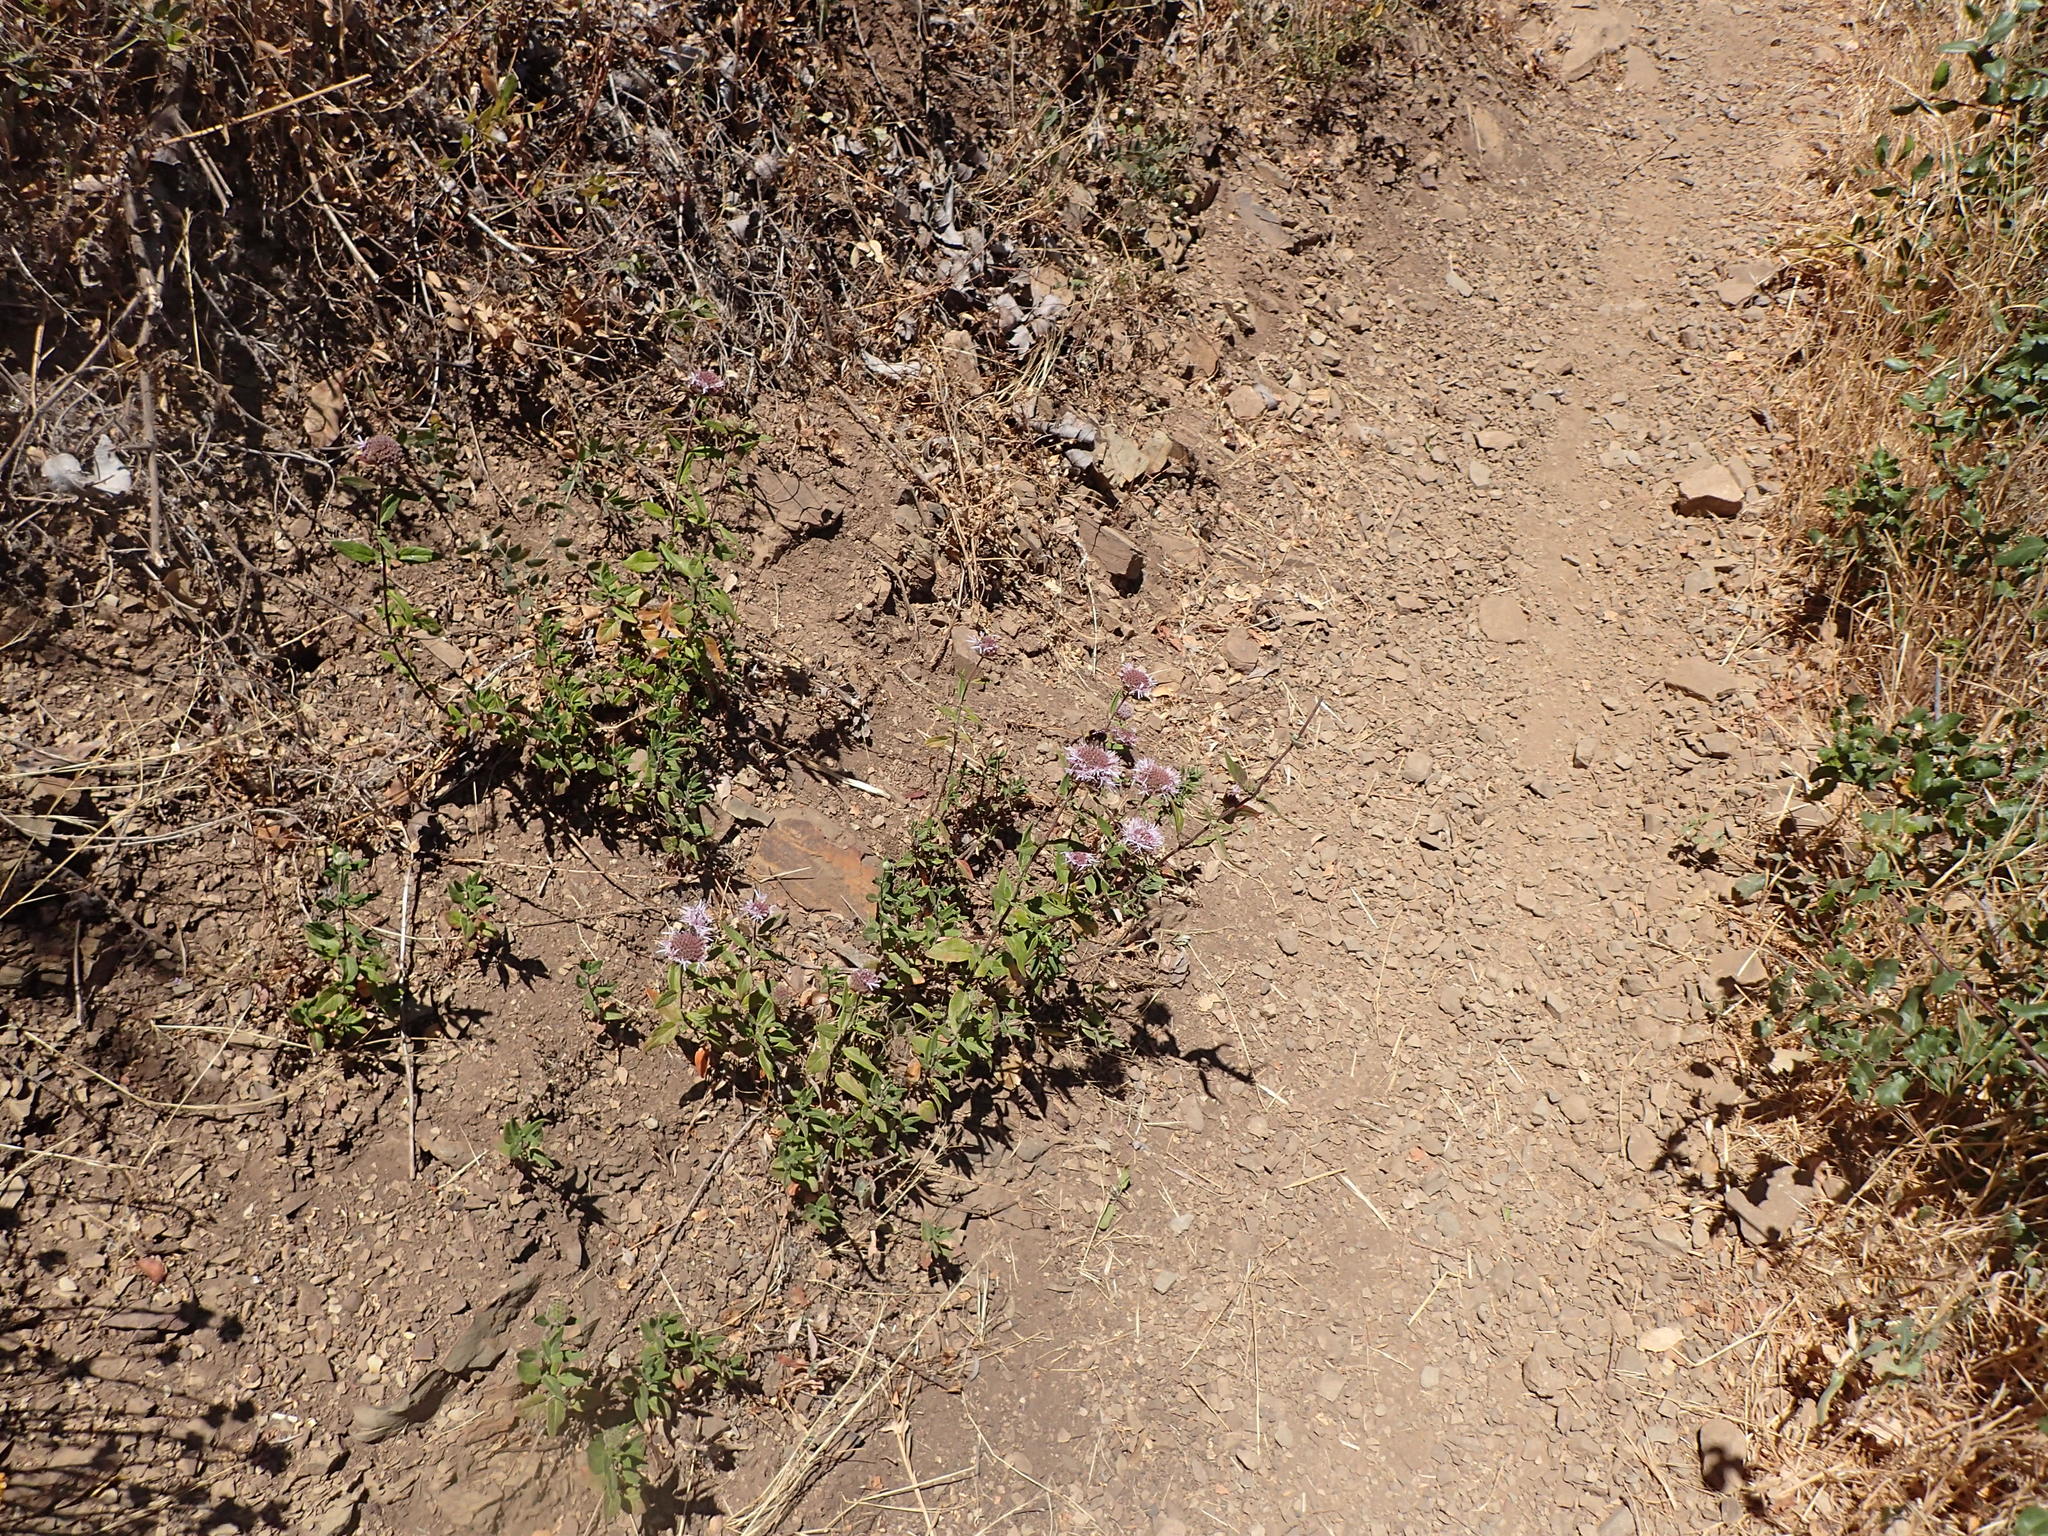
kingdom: Animalia
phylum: Arthropoda
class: Insecta
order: Hymenoptera
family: Apidae
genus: Bombus
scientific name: Bombus vosnesenskii
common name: Vosnesensky bumble bee
